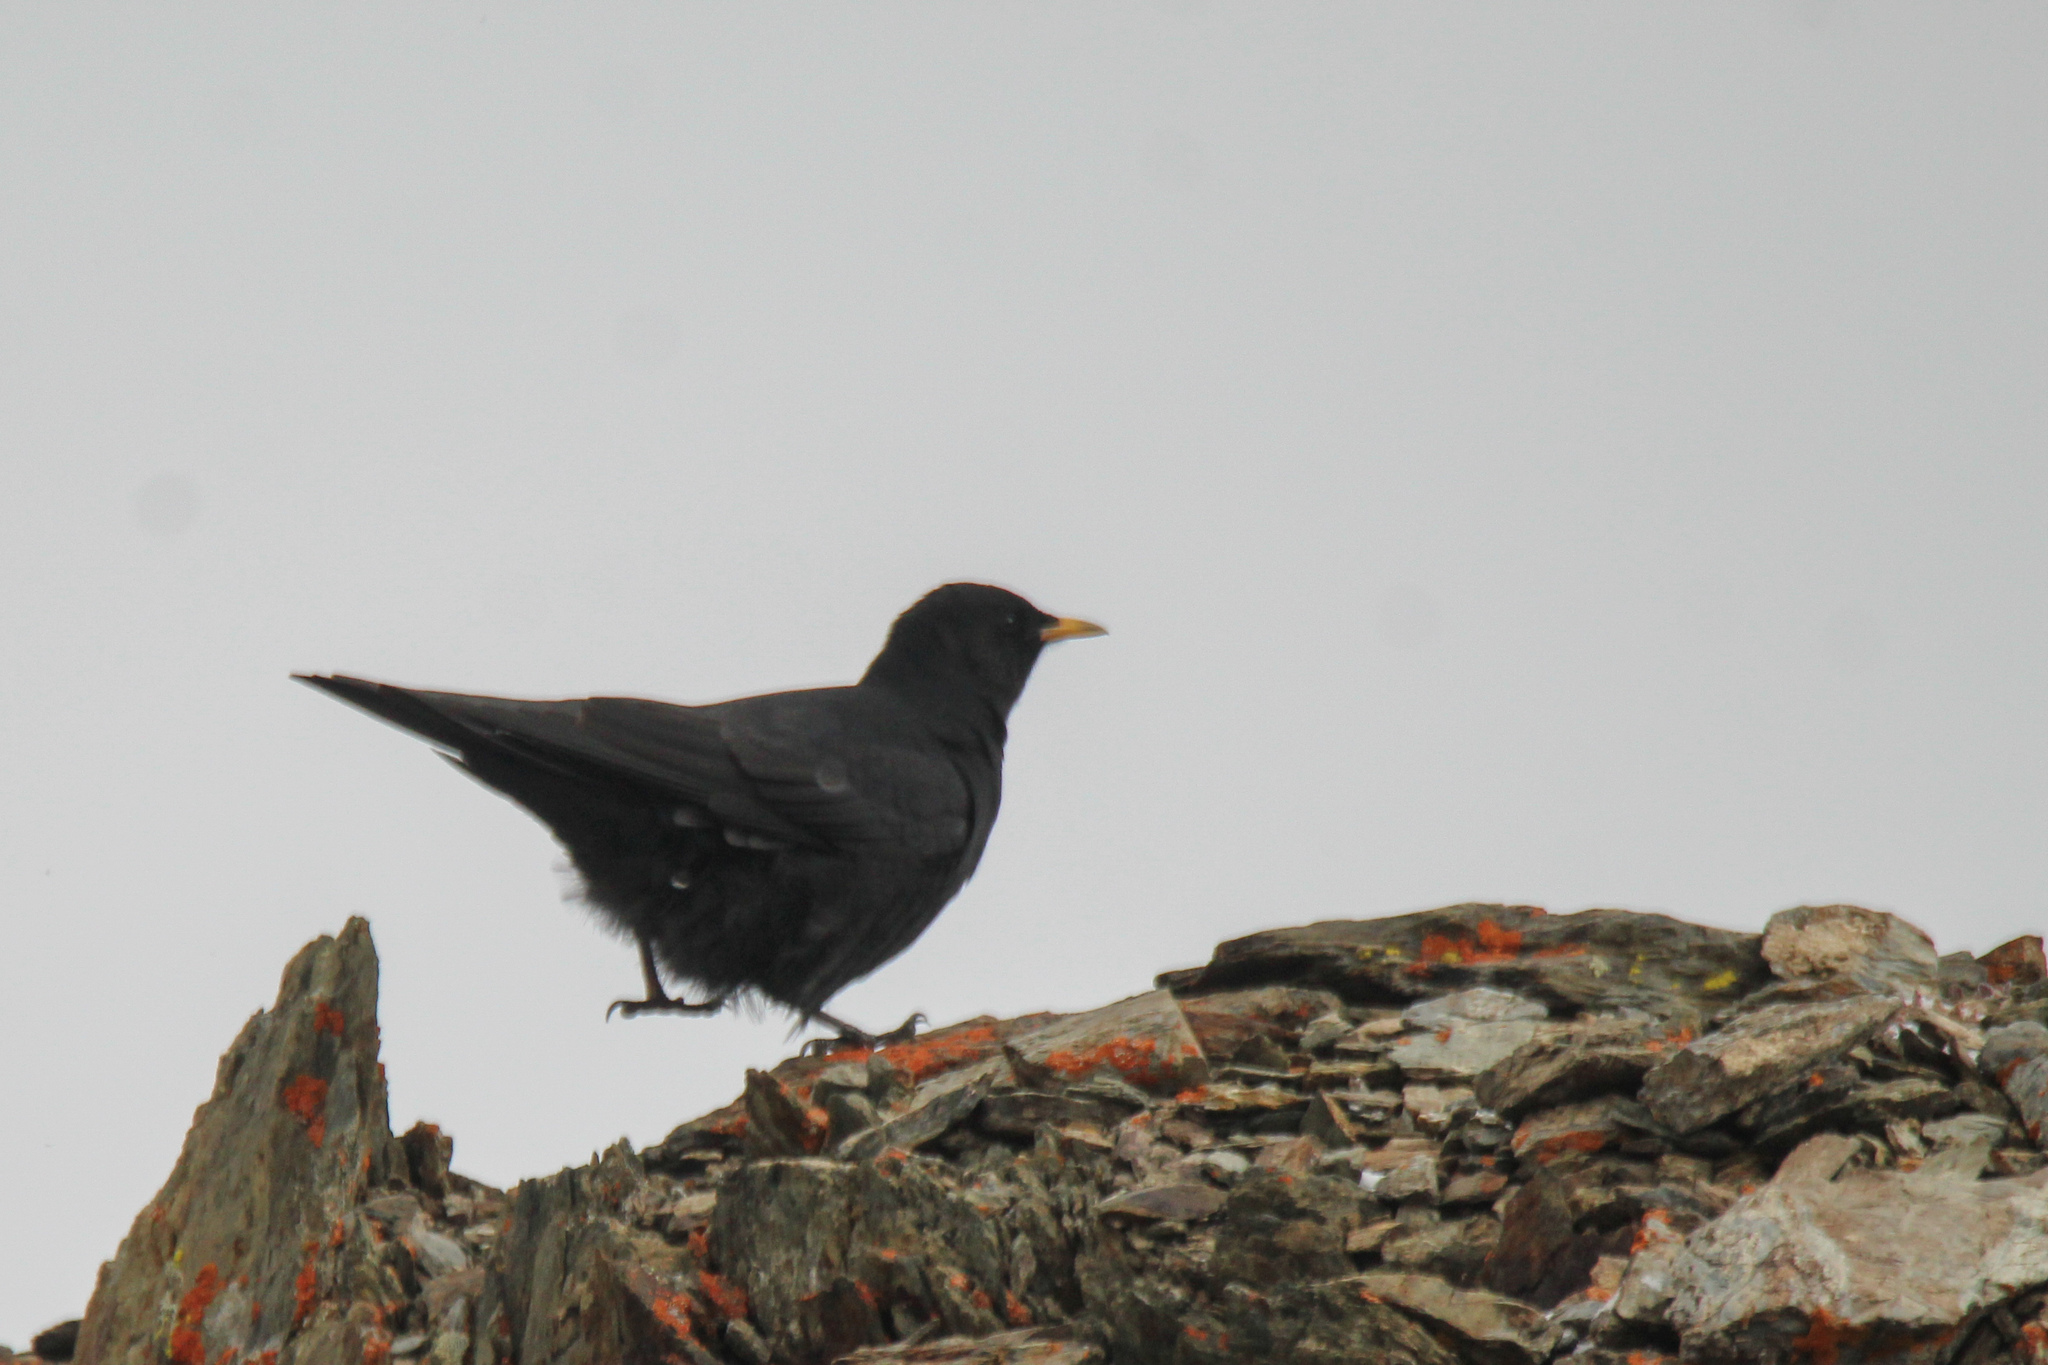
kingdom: Animalia
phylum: Chordata
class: Aves
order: Passeriformes
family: Corvidae
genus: Pyrrhocorax
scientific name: Pyrrhocorax graculus
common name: Alpine chough
